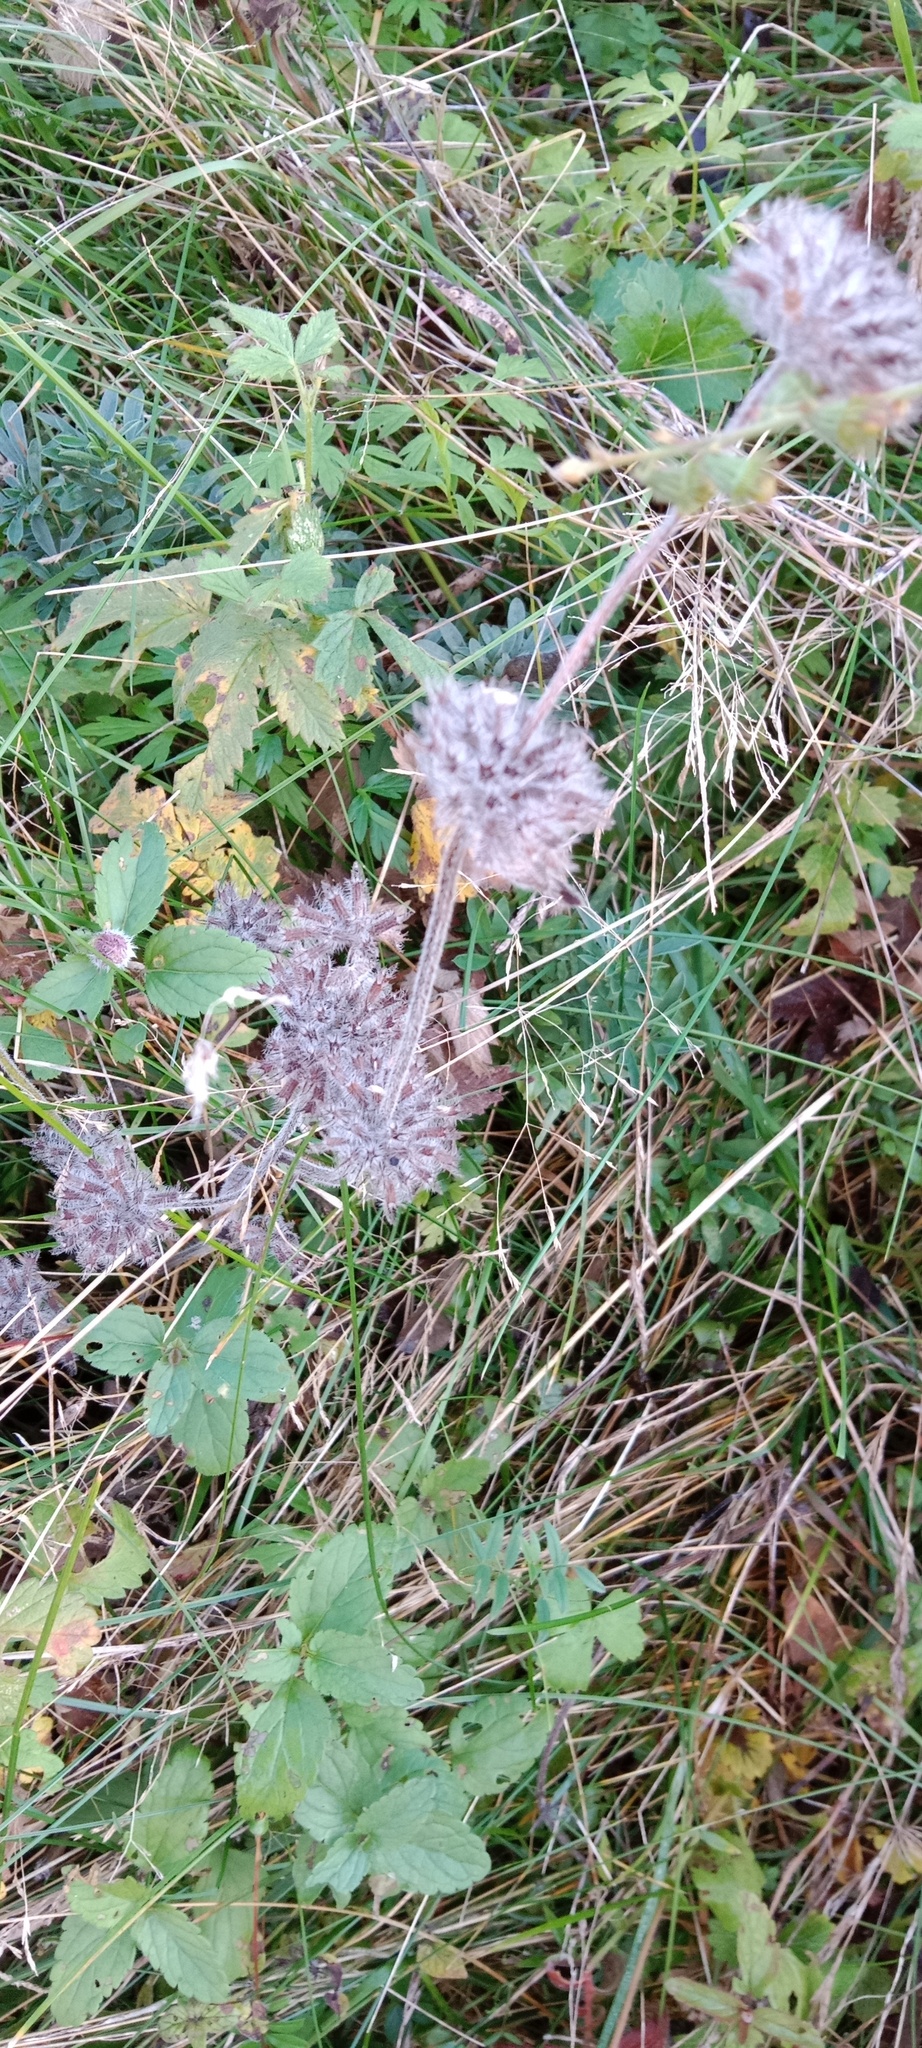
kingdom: Plantae
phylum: Tracheophyta
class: Magnoliopsida
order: Lamiales
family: Lamiaceae
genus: Clinopodium
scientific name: Clinopodium vulgare
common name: Wild basil
